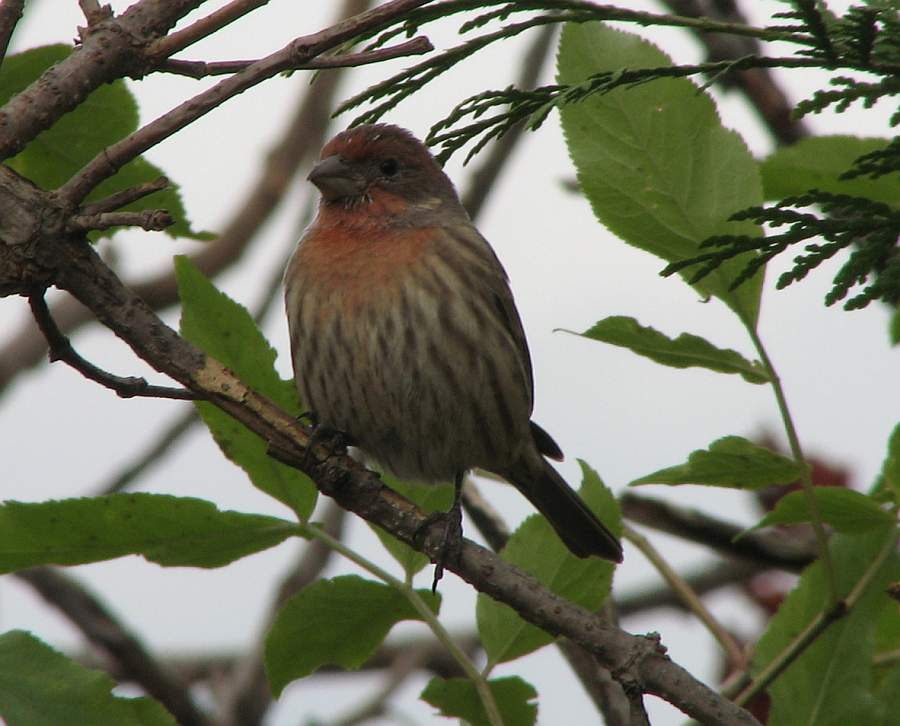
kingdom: Animalia
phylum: Chordata
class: Aves
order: Passeriformes
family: Fringillidae
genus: Haemorhous
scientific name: Haemorhous mexicanus
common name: House finch
